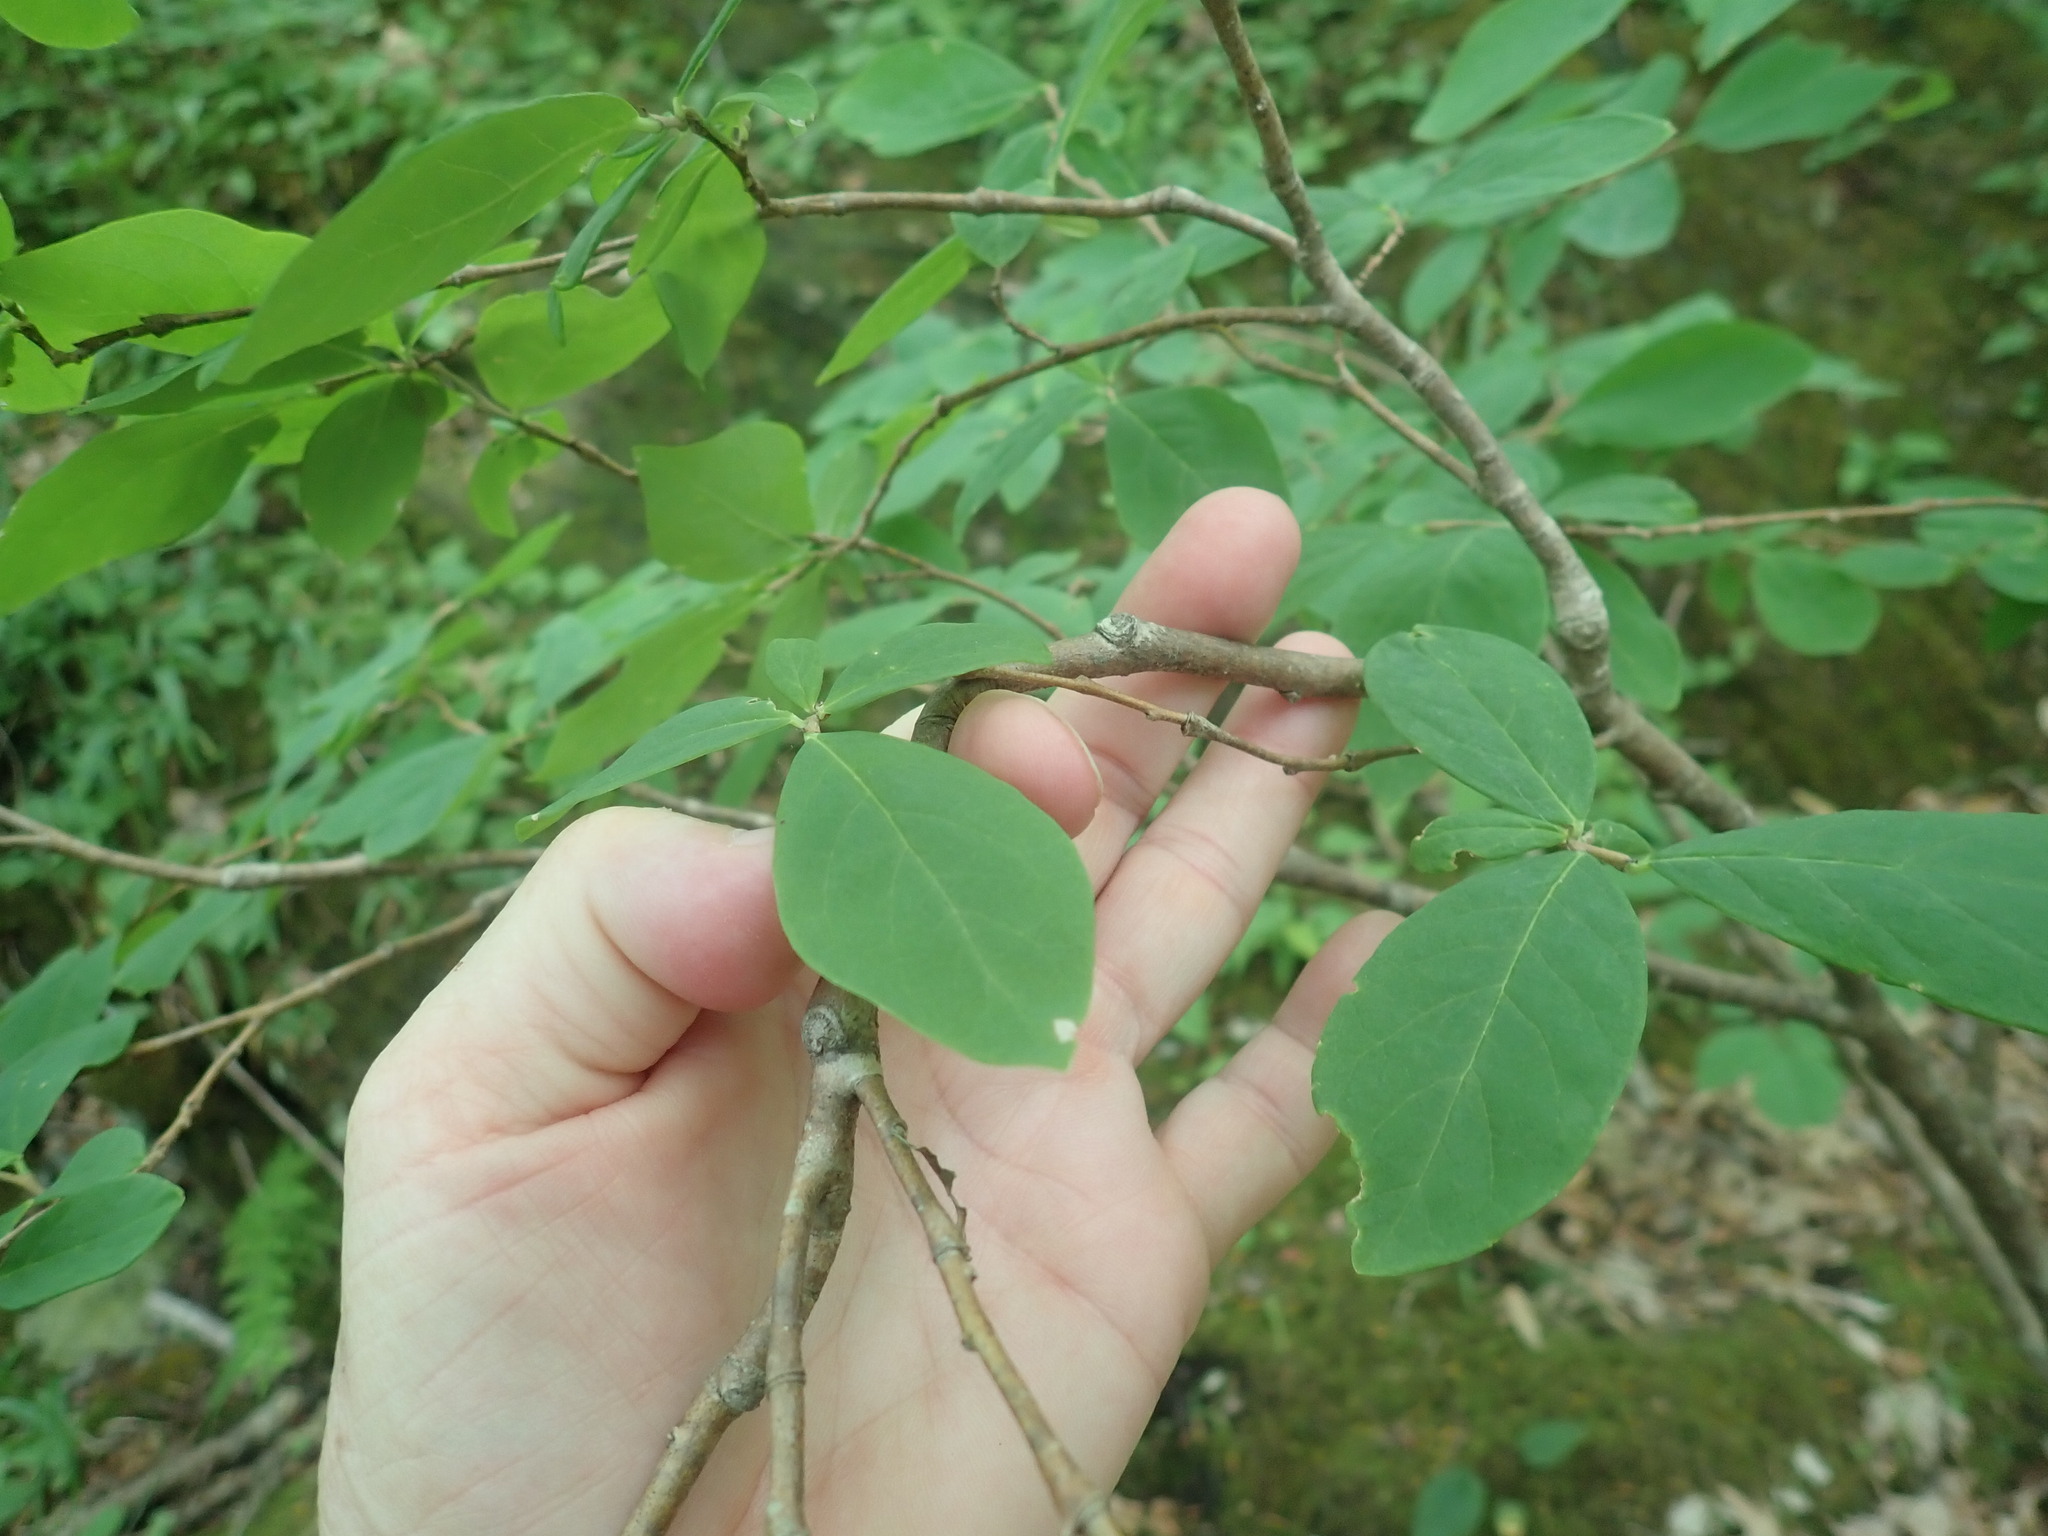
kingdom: Plantae
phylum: Tracheophyta
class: Magnoliopsida
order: Malvales
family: Thymelaeaceae
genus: Dirca
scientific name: Dirca palustris
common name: Leatherwood
